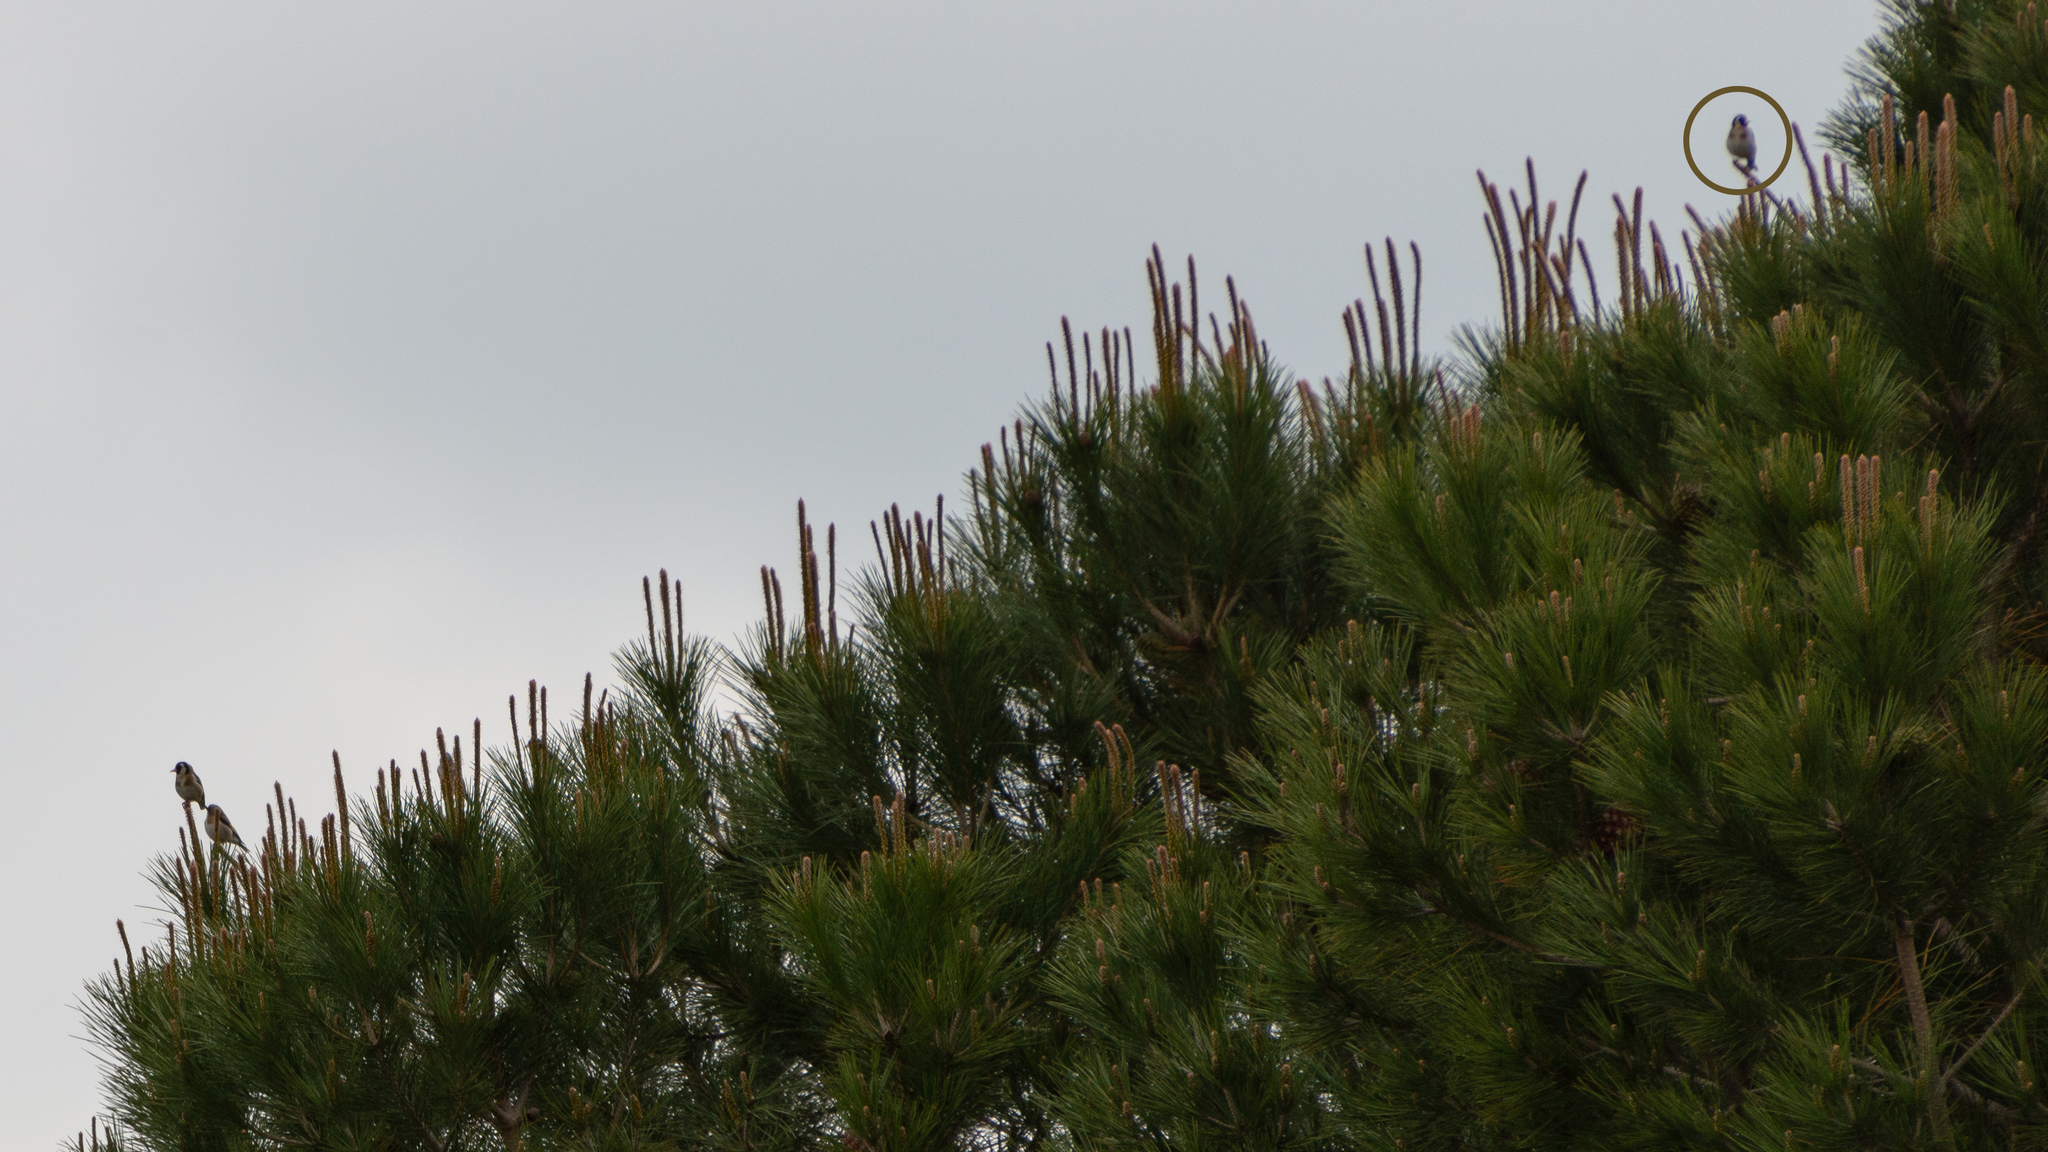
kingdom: Animalia
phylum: Chordata
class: Aves
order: Passeriformes
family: Fringillidae
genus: Carduelis
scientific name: Carduelis carduelis
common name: European goldfinch
